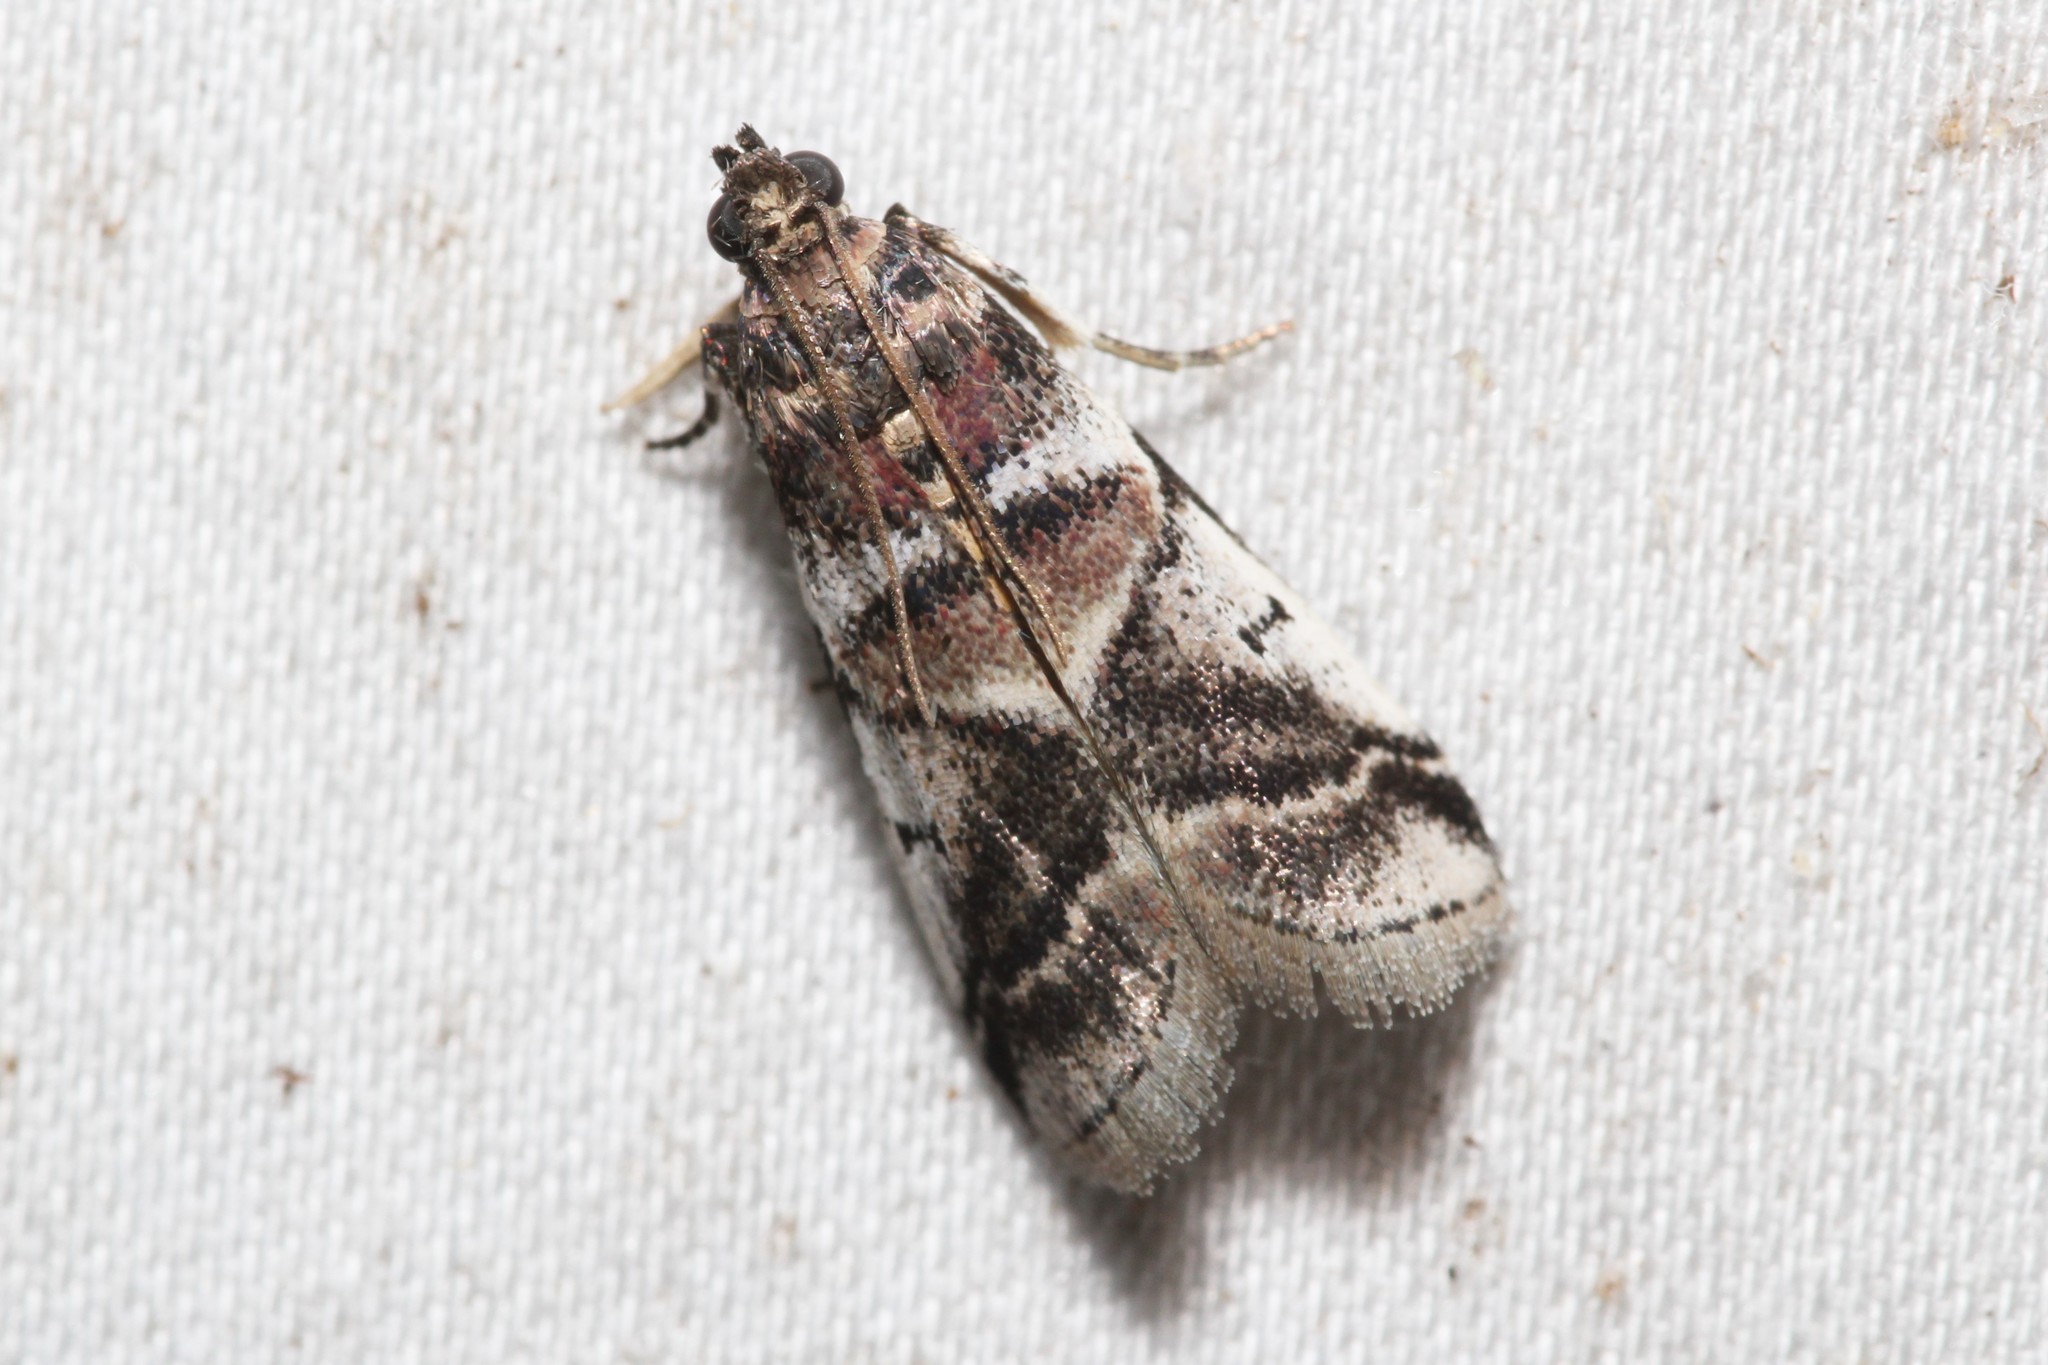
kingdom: Animalia
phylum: Arthropoda
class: Insecta
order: Lepidoptera
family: Pyralidae
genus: Acrobasis
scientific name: Acrobasis indigenella
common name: Leaf crumpler moth
